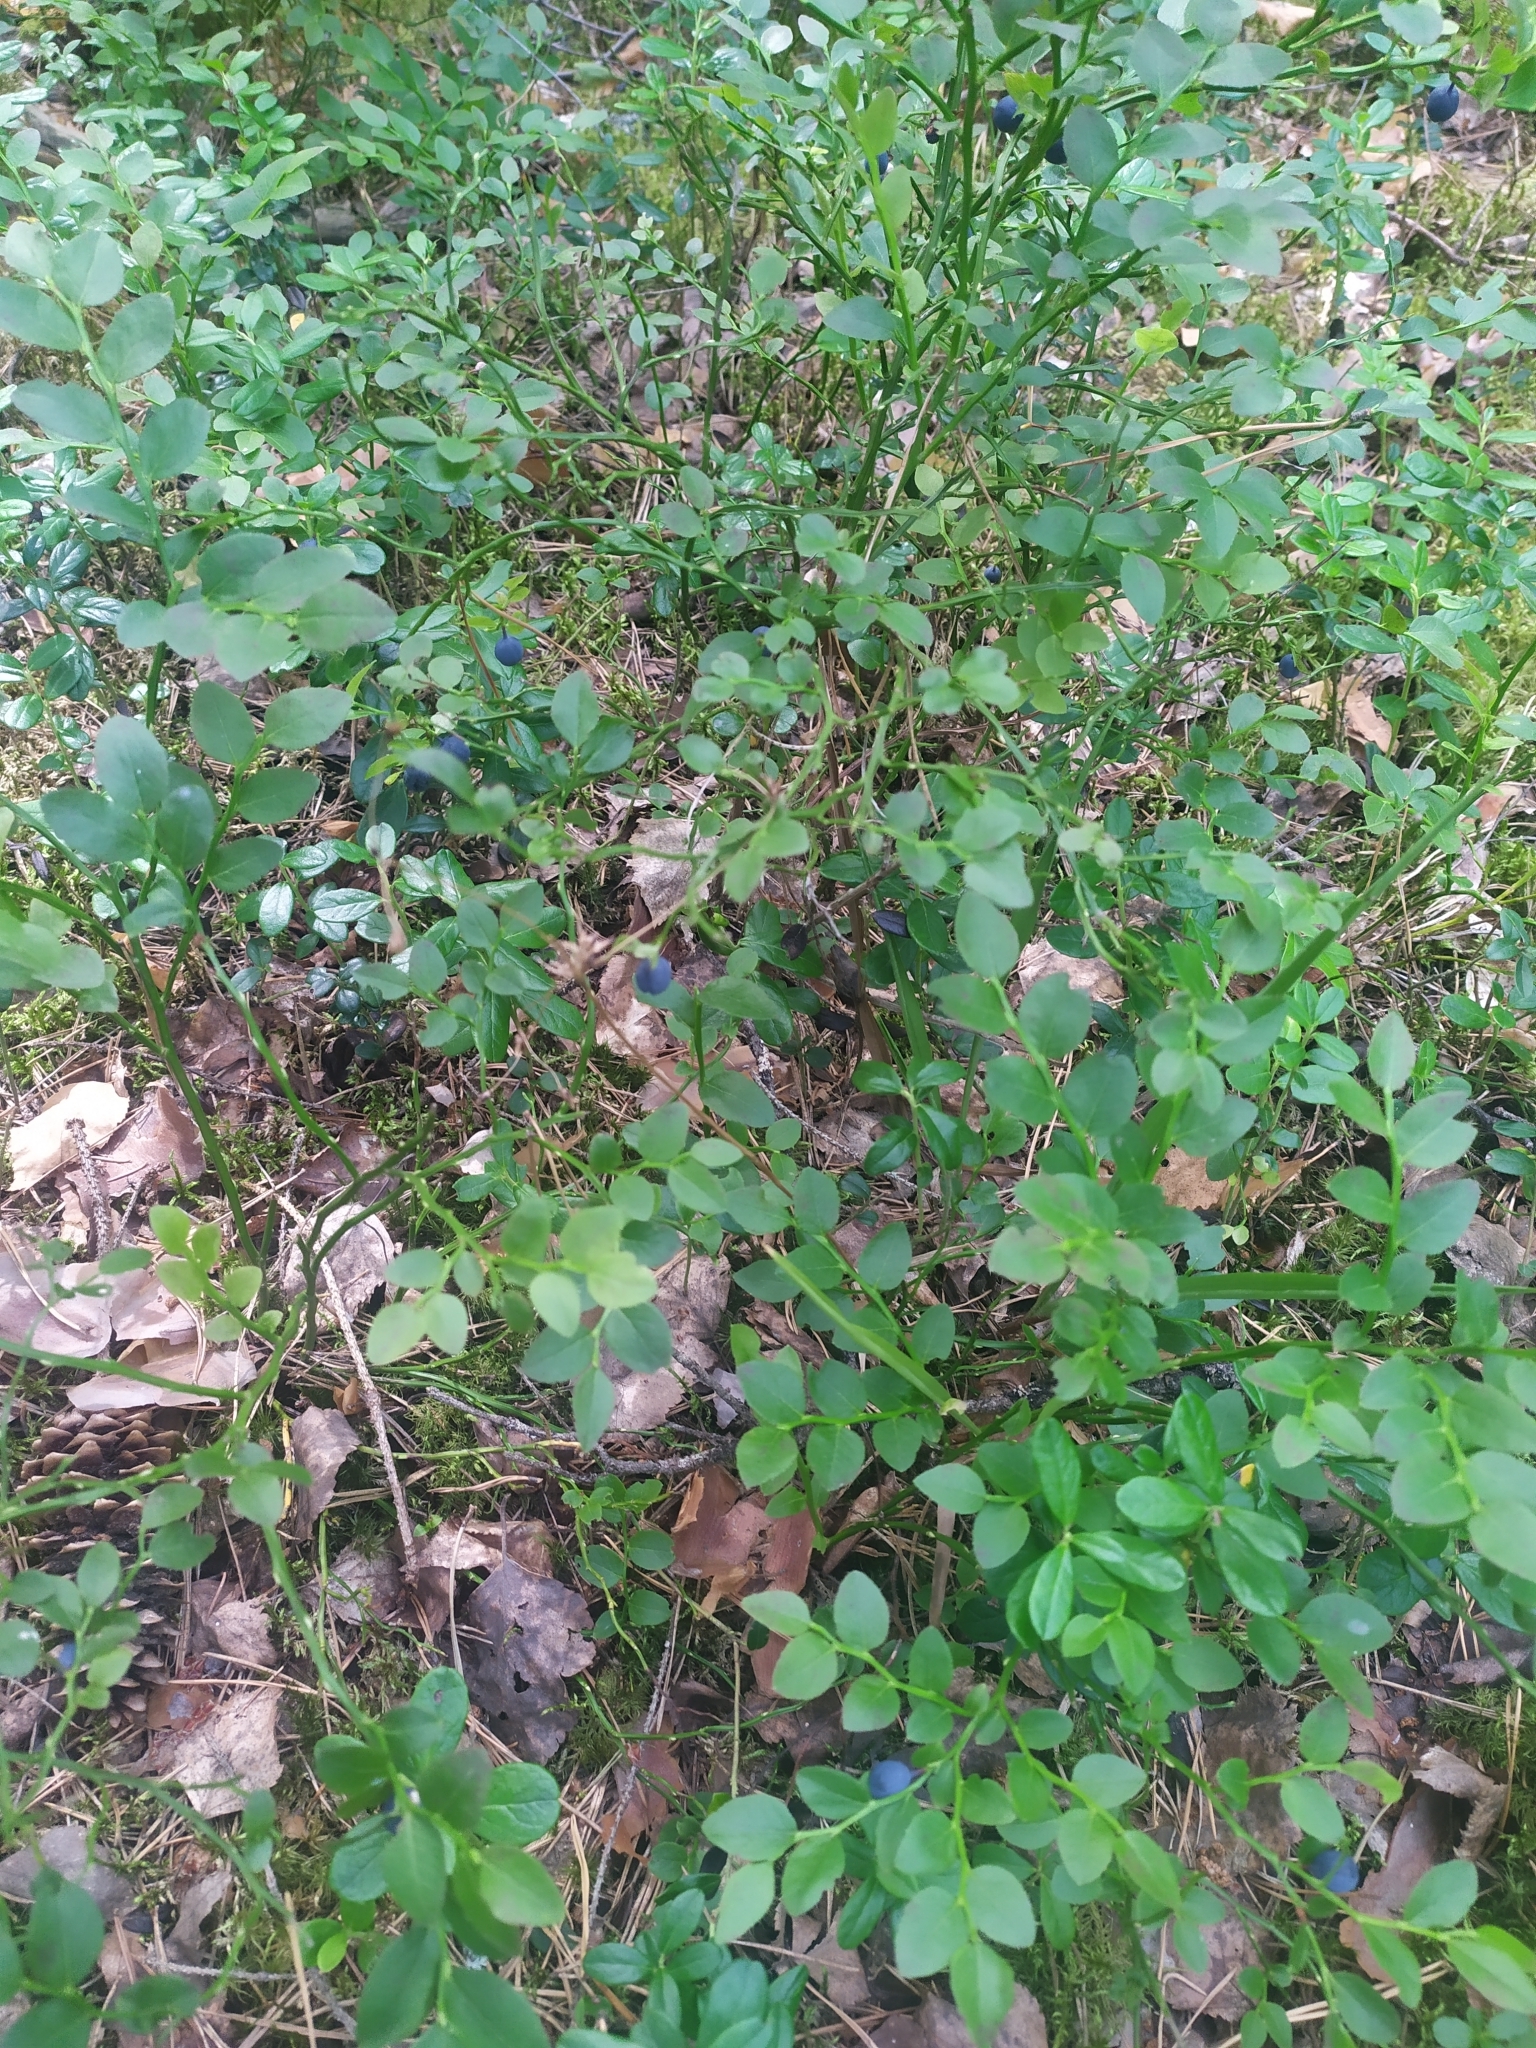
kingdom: Plantae
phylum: Tracheophyta
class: Magnoliopsida
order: Ericales
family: Ericaceae
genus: Vaccinium
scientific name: Vaccinium myrtillus
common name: Bilberry
